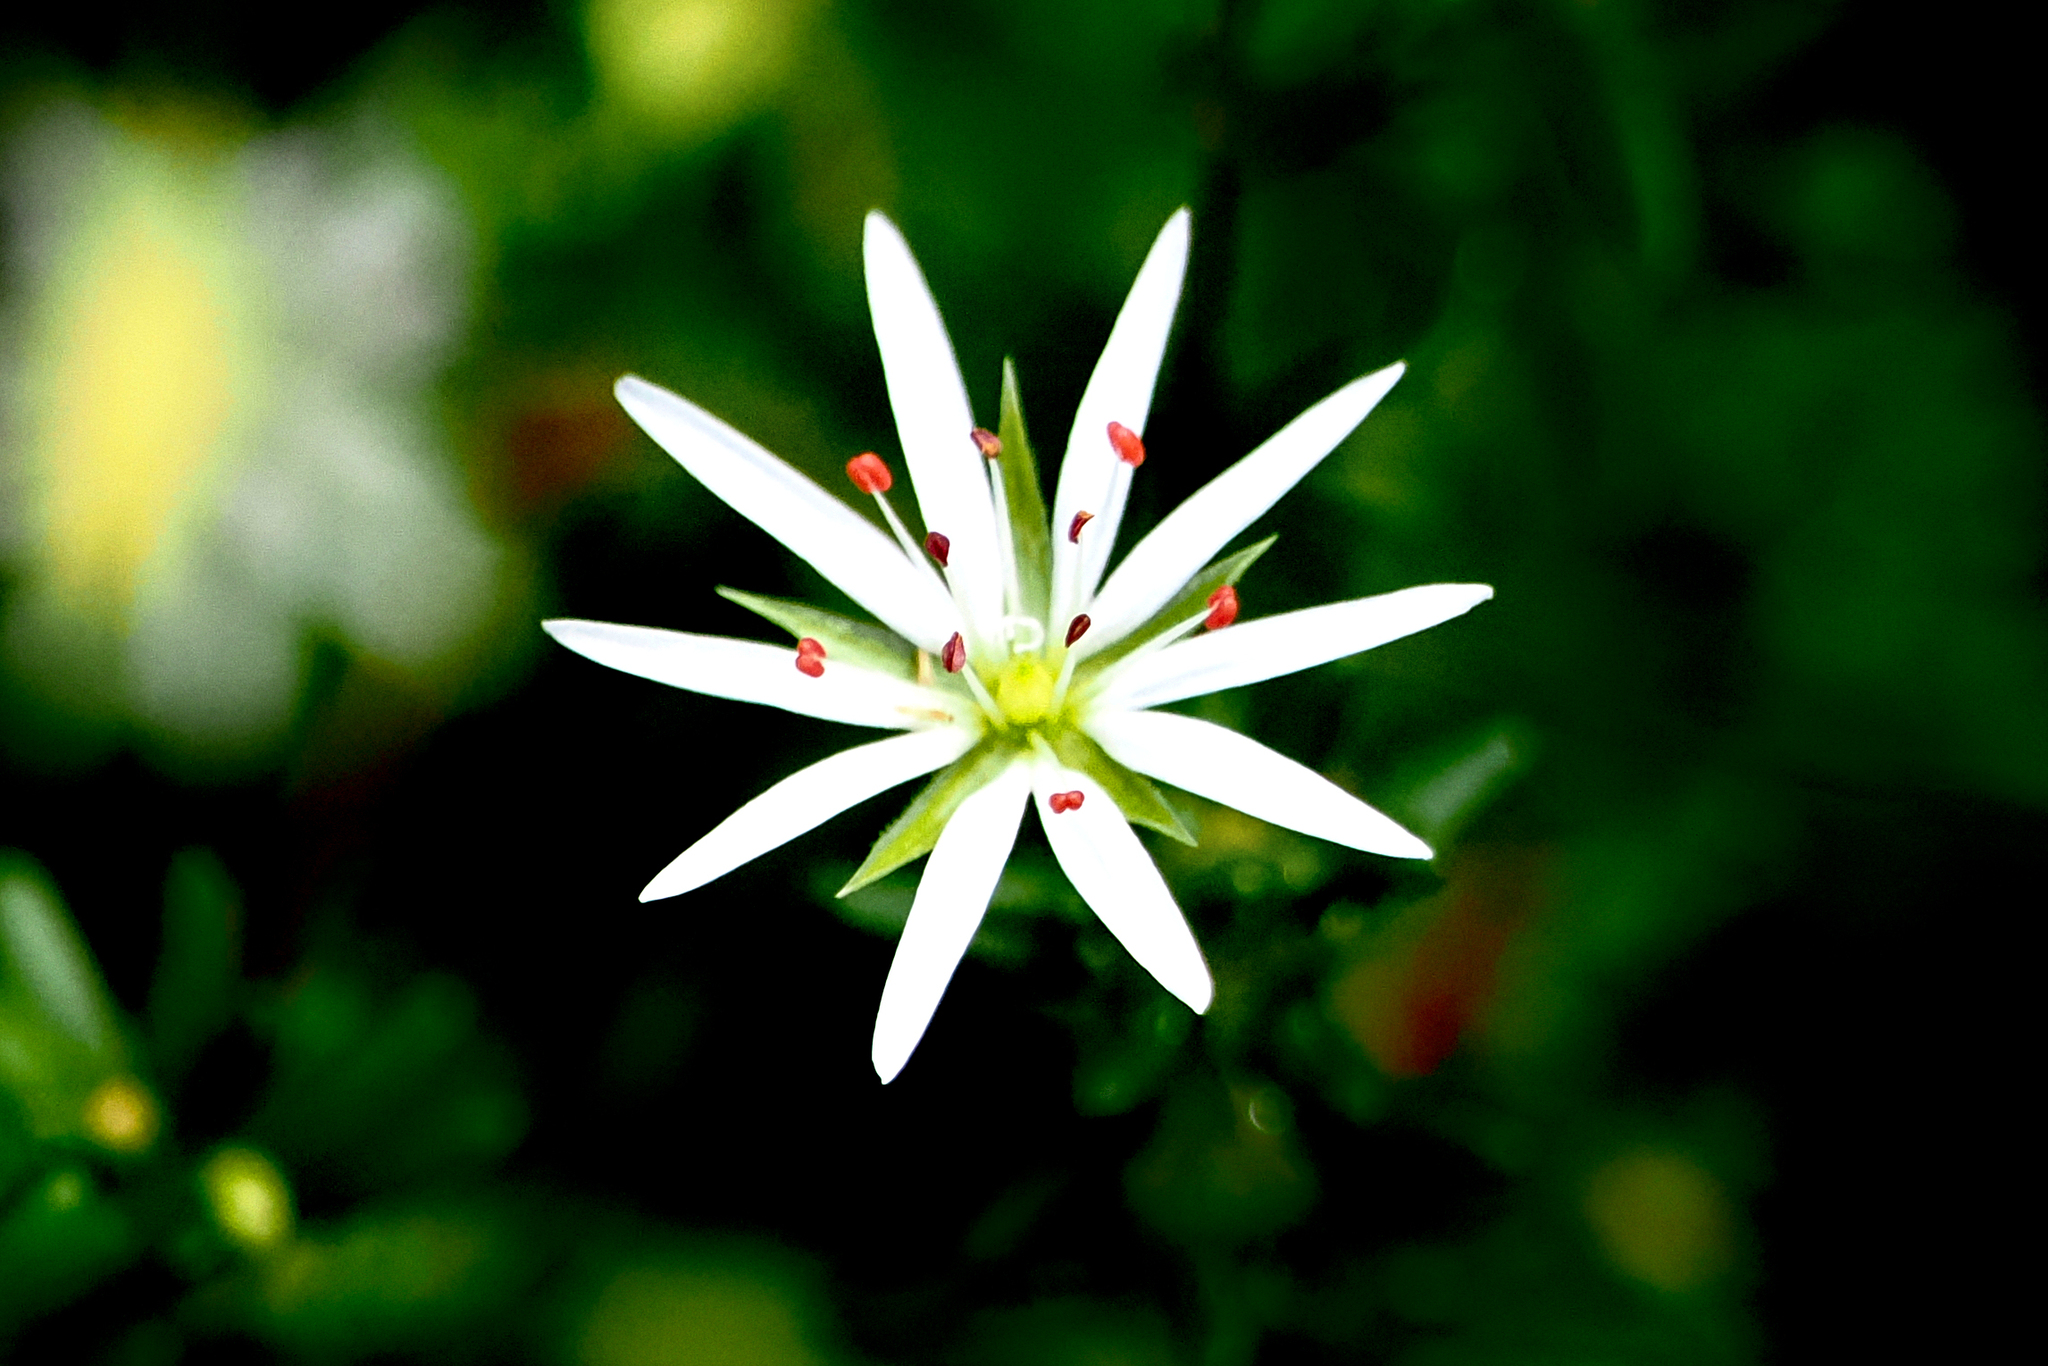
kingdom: Plantae
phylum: Tracheophyta
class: Magnoliopsida
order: Caryophyllales
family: Caryophyllaceae
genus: Stellaria
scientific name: Stellaria graminea
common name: Grass-like starwort
